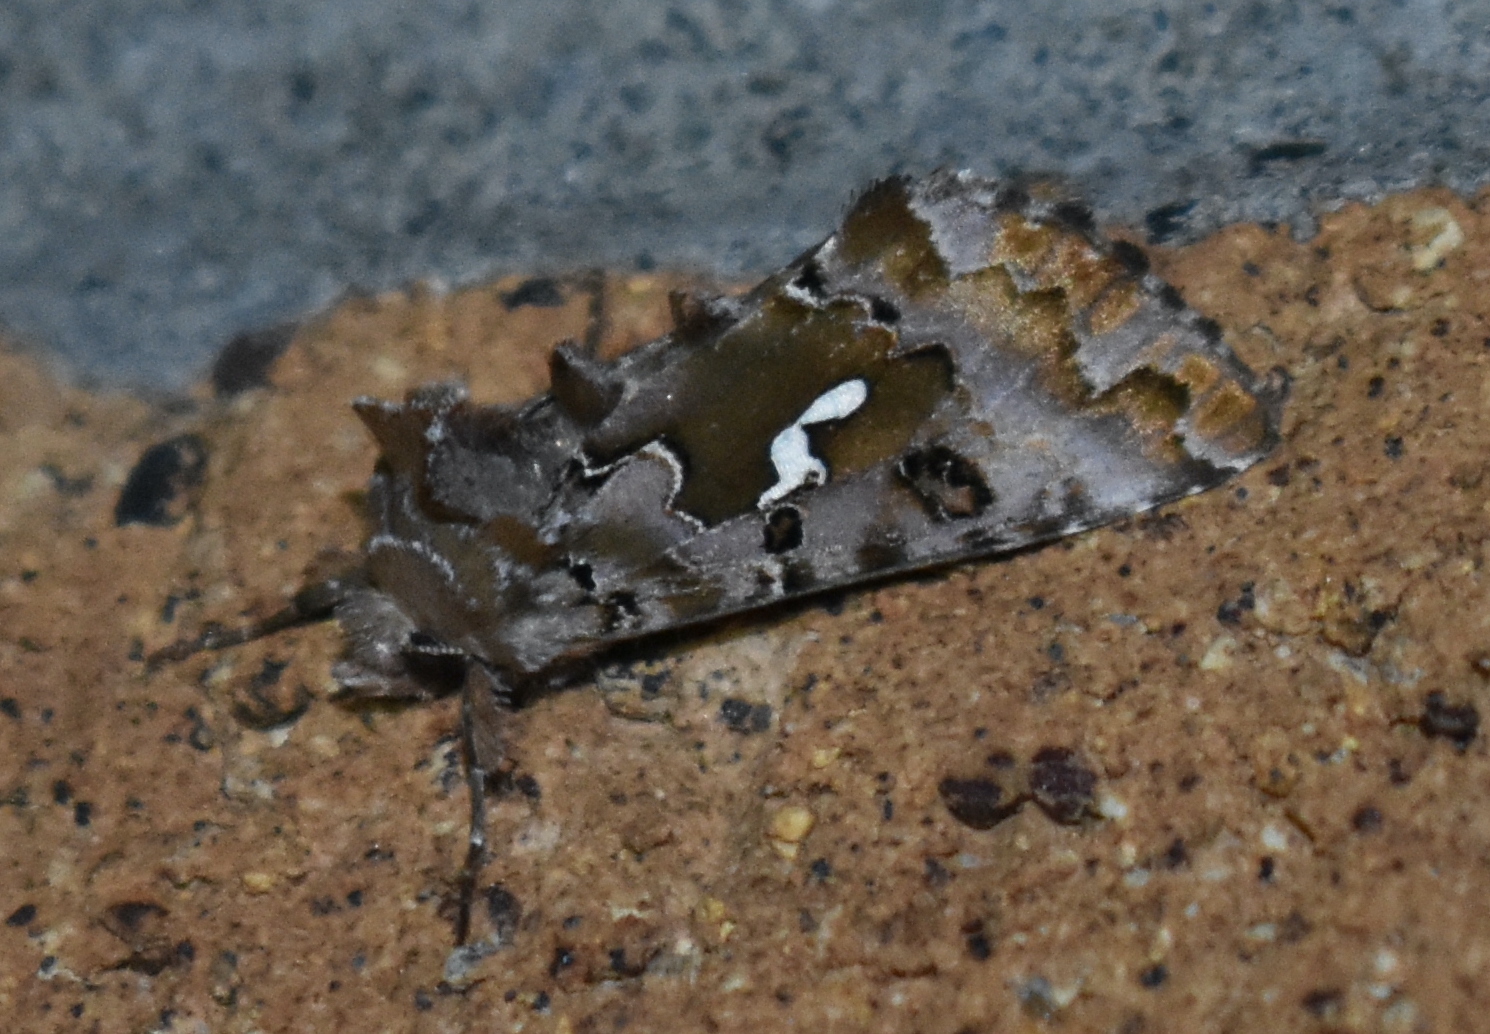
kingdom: Animalia
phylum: Arthropoda
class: Insecta
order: Lepidoptera
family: Noctuidae
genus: Autographa
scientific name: Autographa corusca
